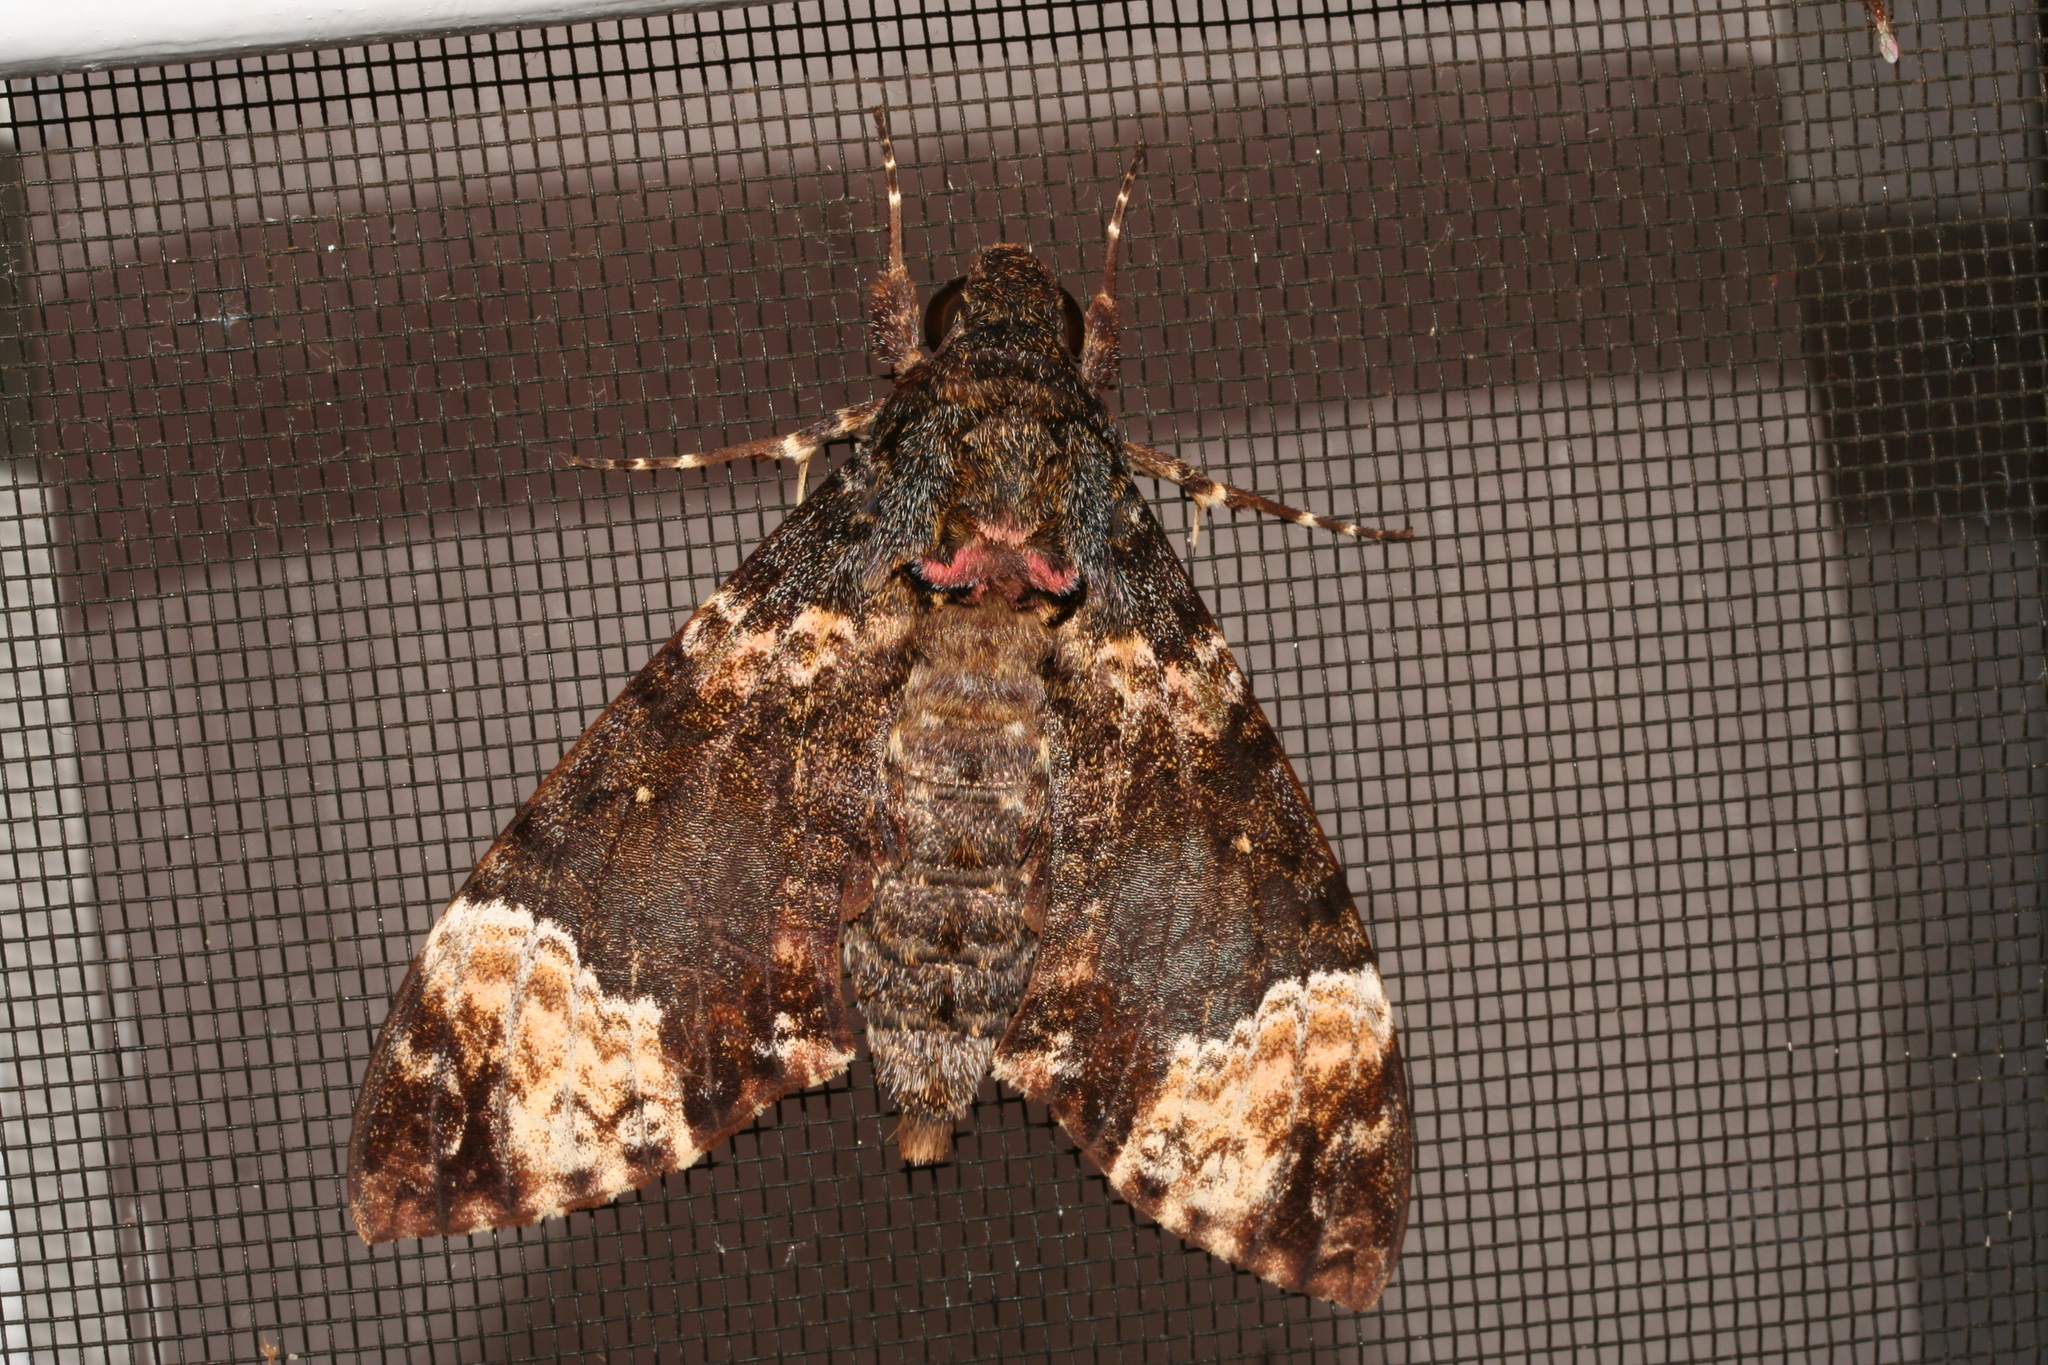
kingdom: Animalia
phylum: Arthropoda
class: Insecta
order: Lepidoptera
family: Sphingidae
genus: Coelonia
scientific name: Coelonia fulvinotata
